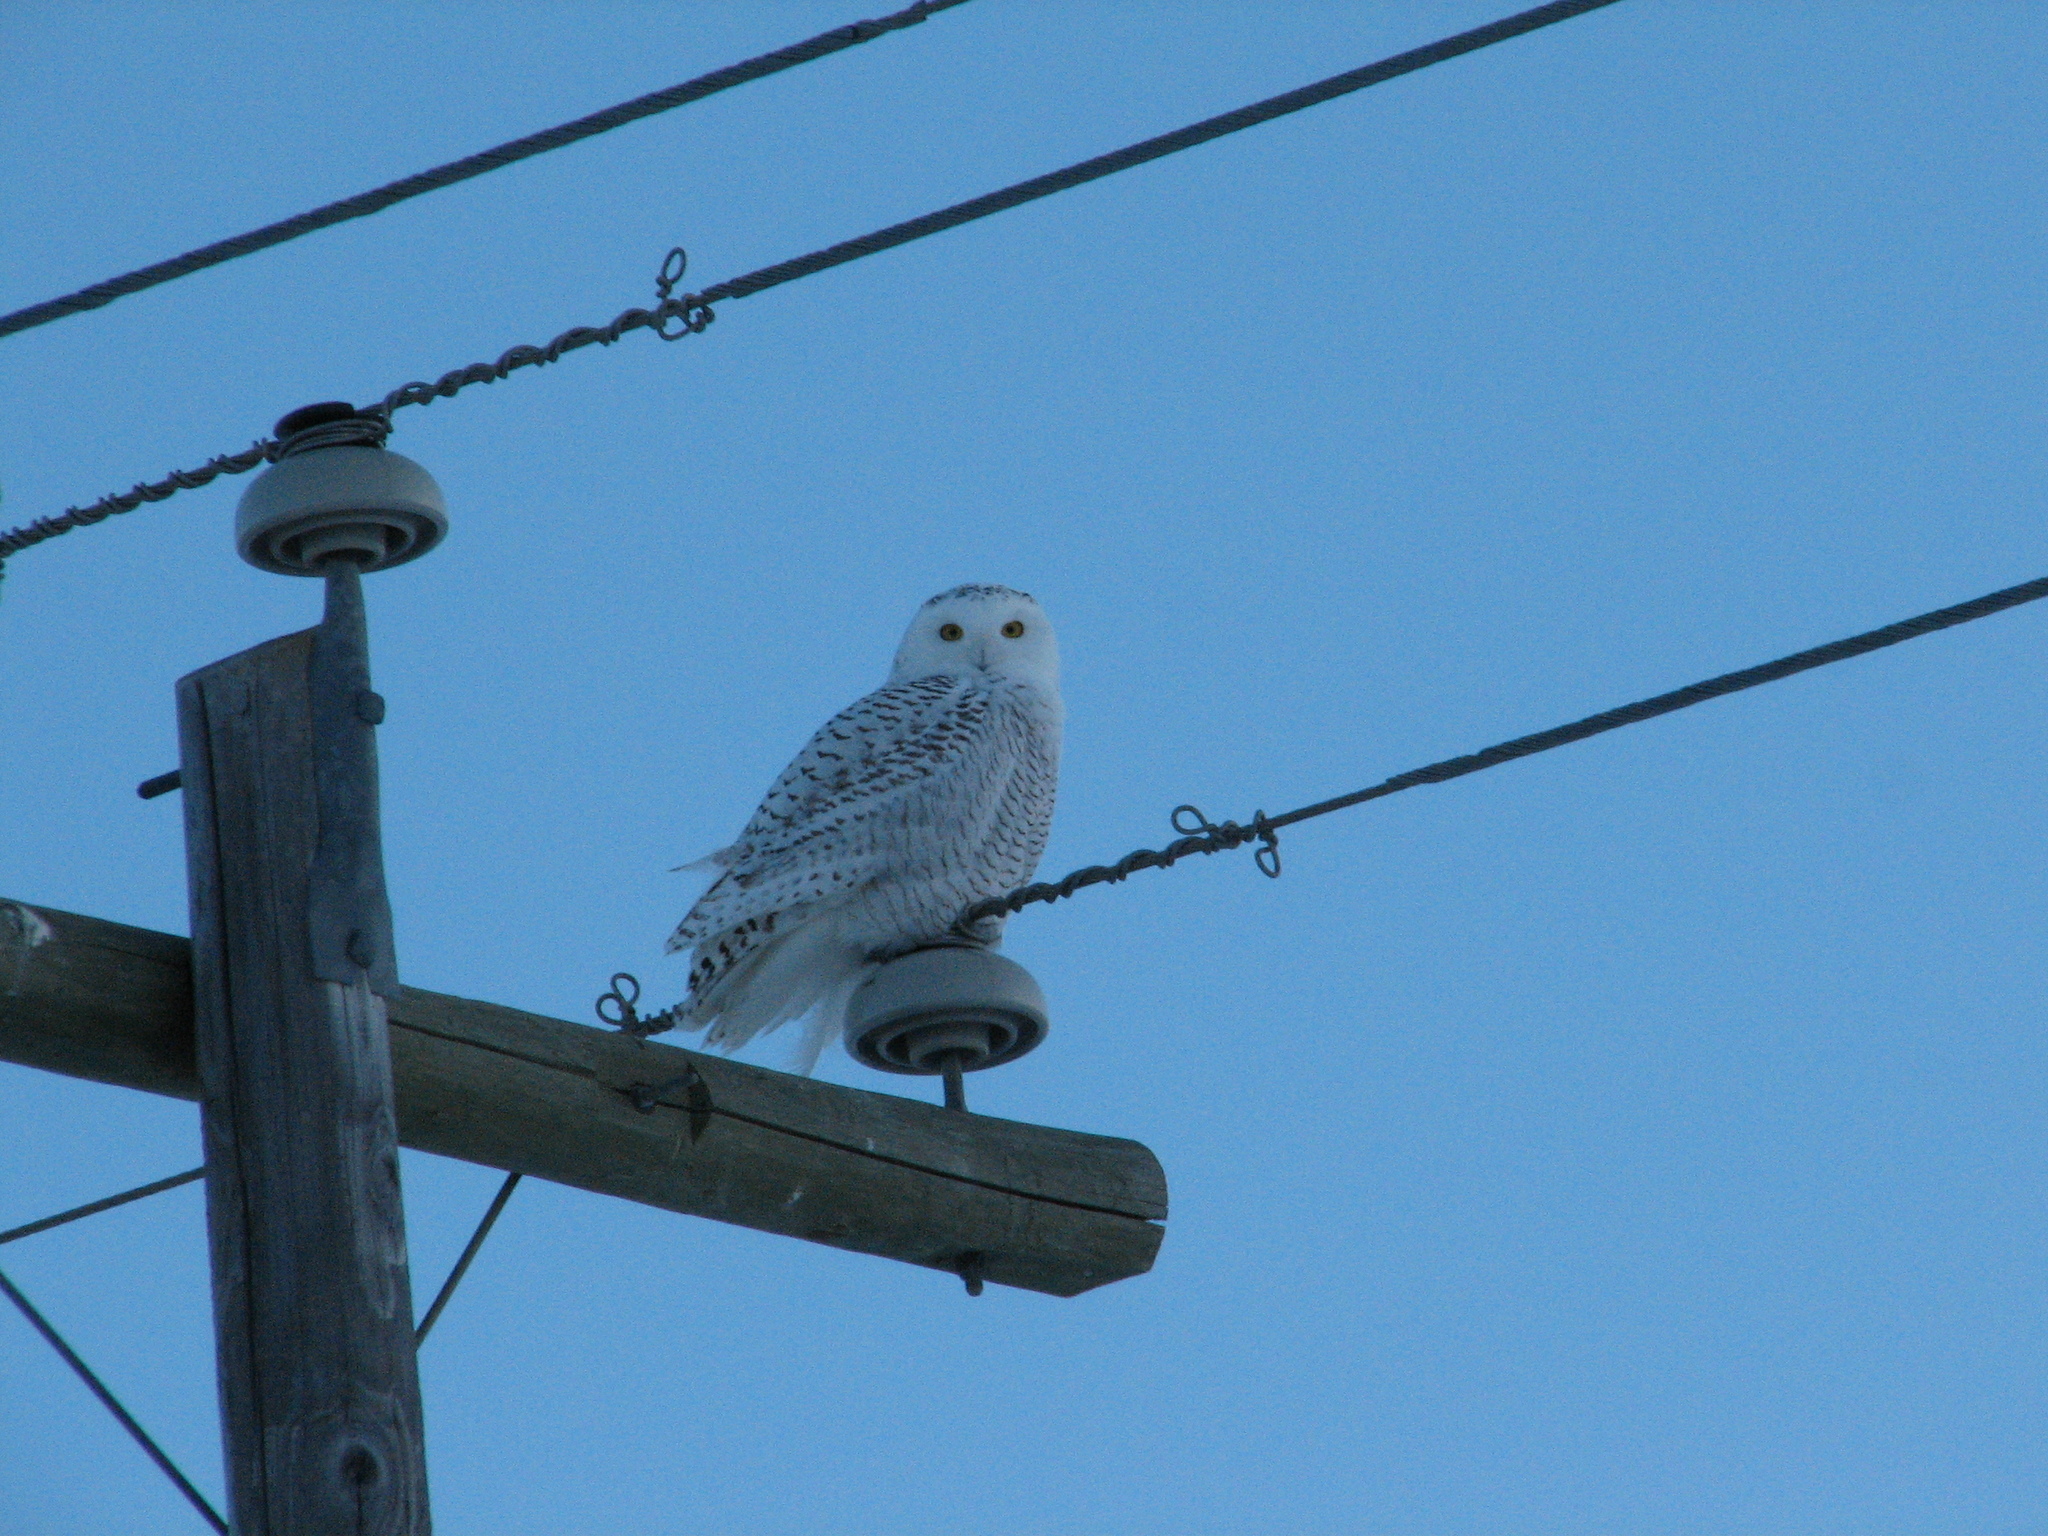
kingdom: Animalia
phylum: Chordata
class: Aves
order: Strigiformes
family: Strigidae
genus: Bubo
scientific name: Bubo scandiacus
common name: Snowy owl
